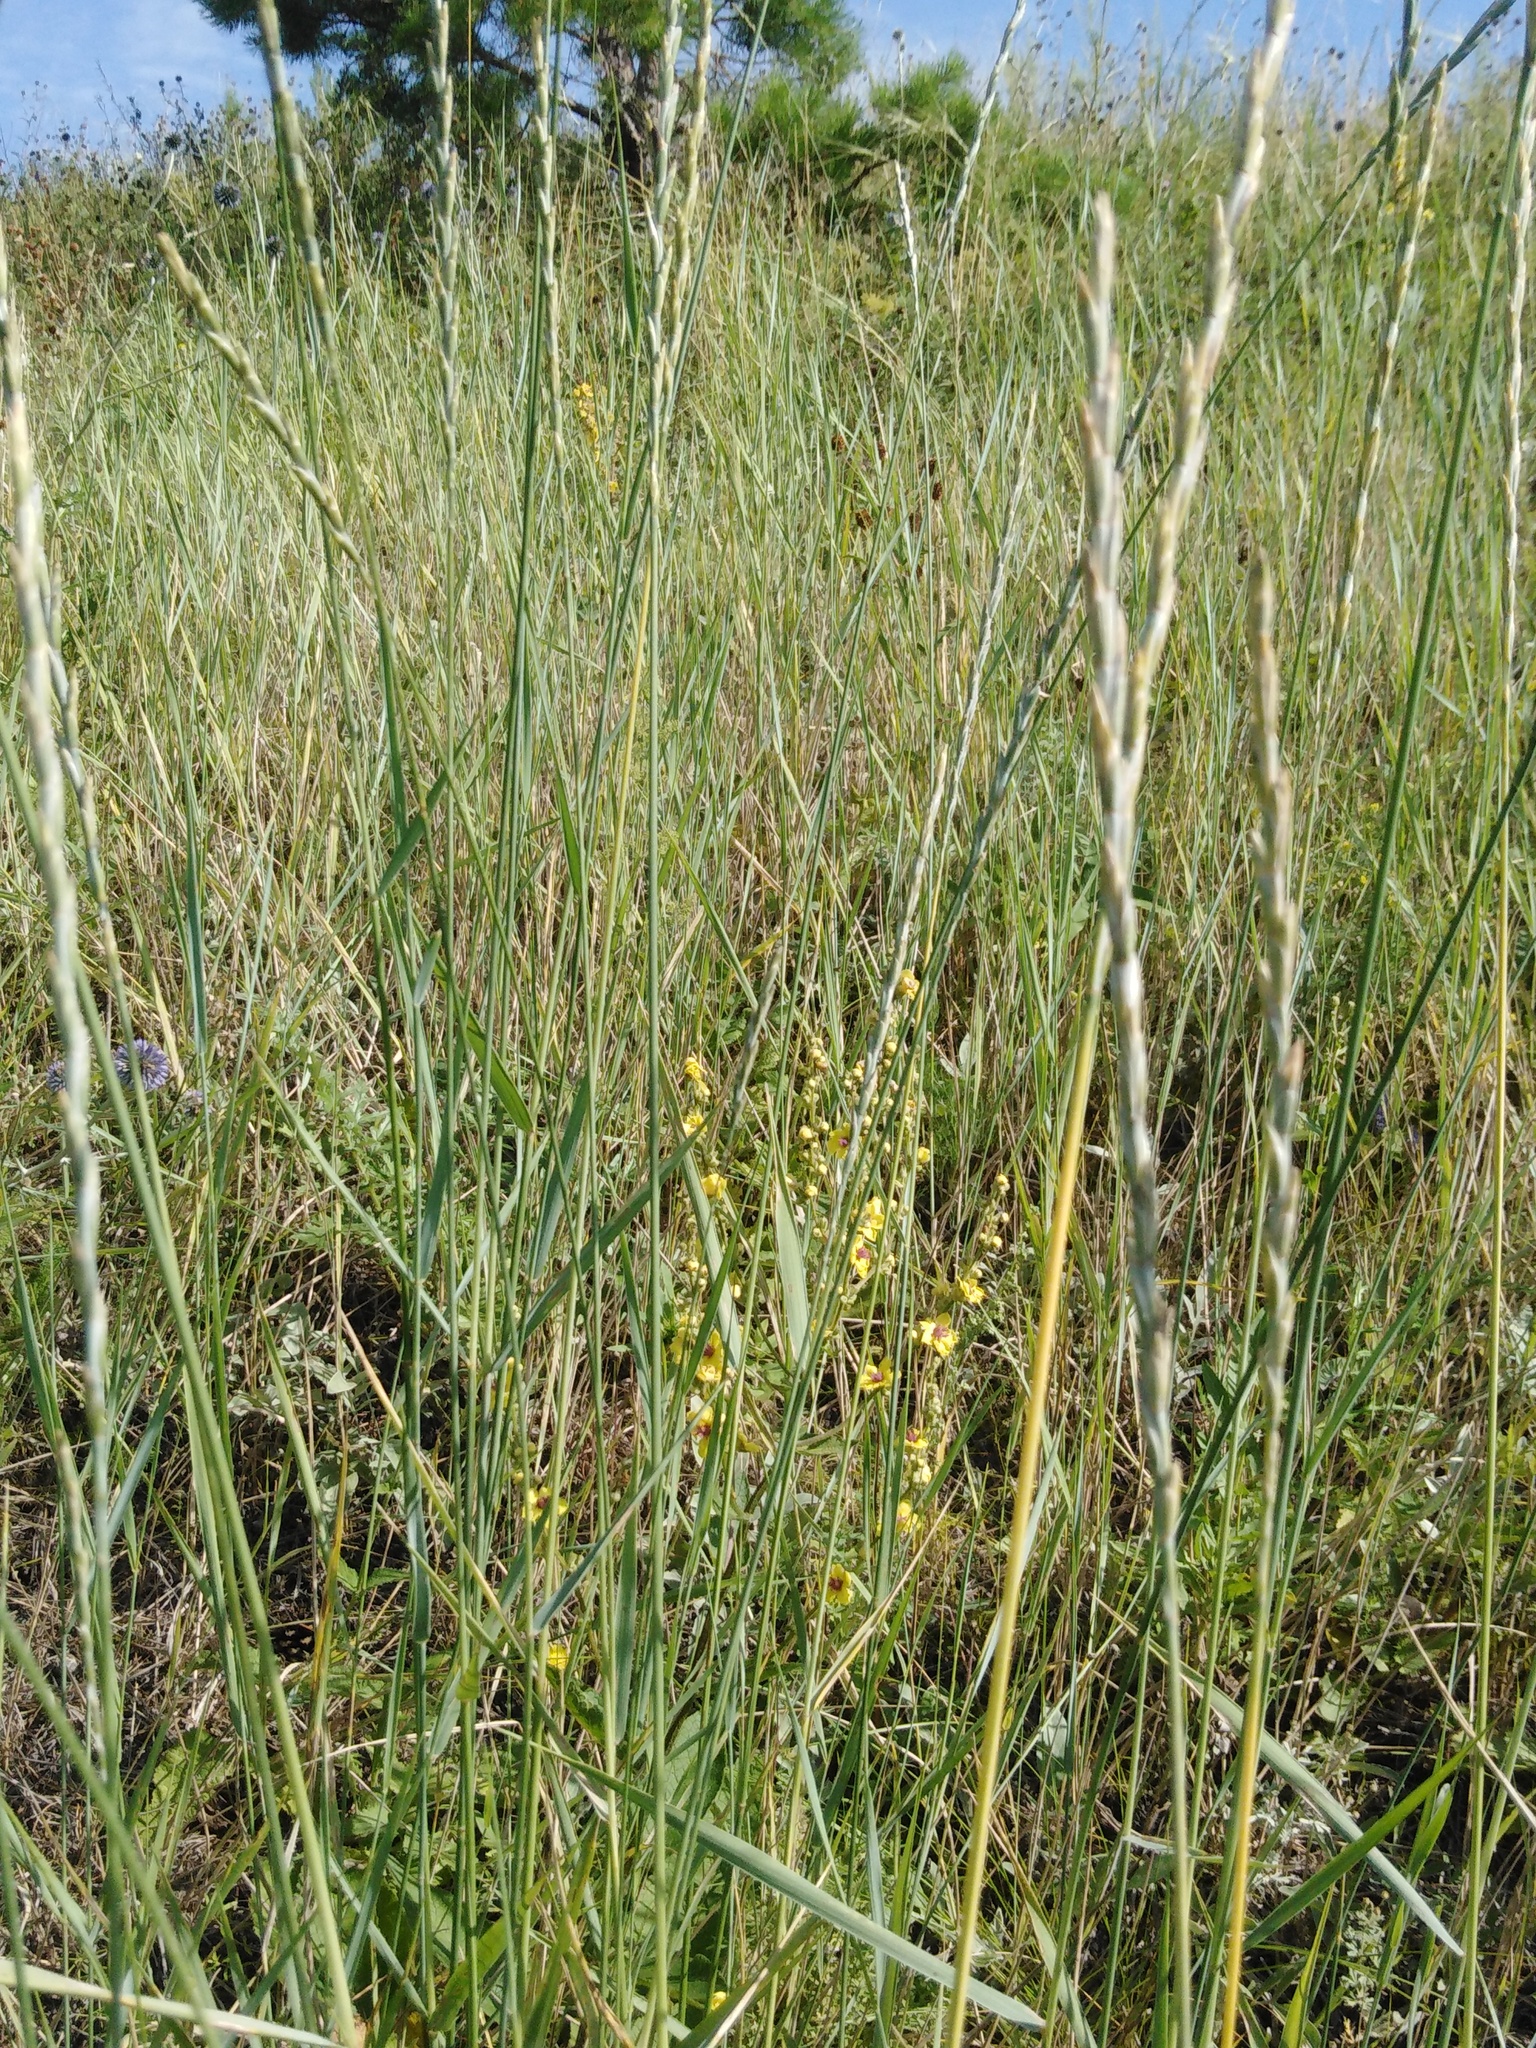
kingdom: Plantae
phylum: Tracheophyta
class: Liliopsida
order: Poales
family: Poaceae
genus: Thinopyrum
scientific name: Thinopyrum intermedium
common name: Intermediate wheatgrass
